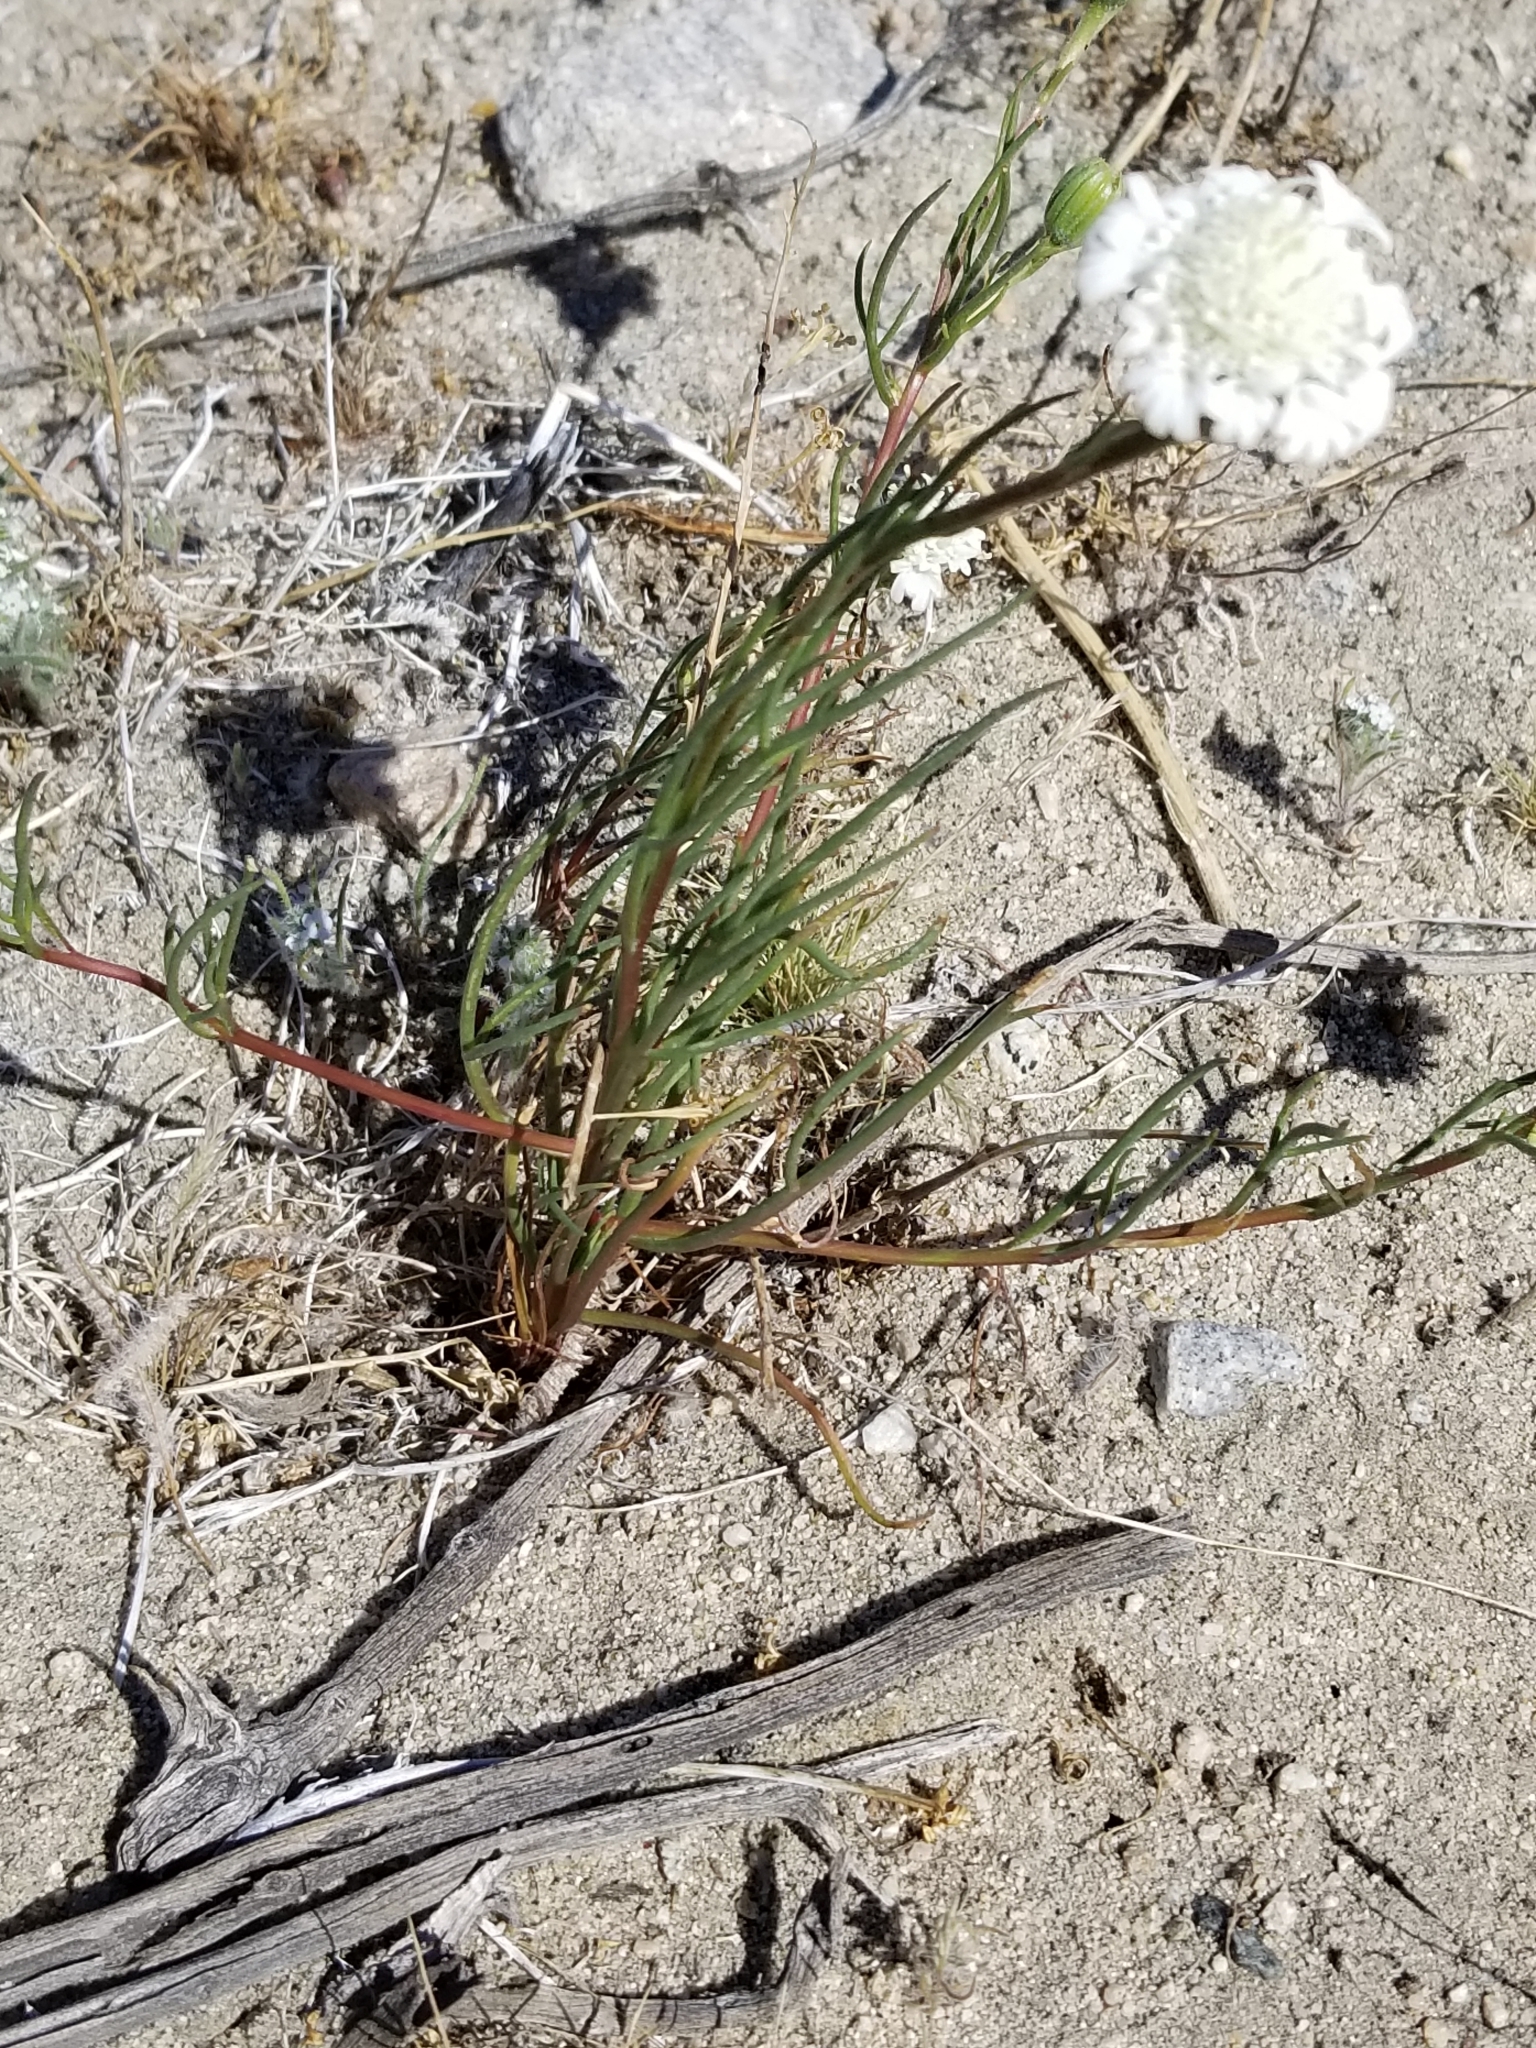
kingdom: Plantae
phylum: Tracheophyta
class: Magnoliopsida
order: Asterales
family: Asteraceae
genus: Chaenactis
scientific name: Chaenactis fremontii
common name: Fremont pincushion
